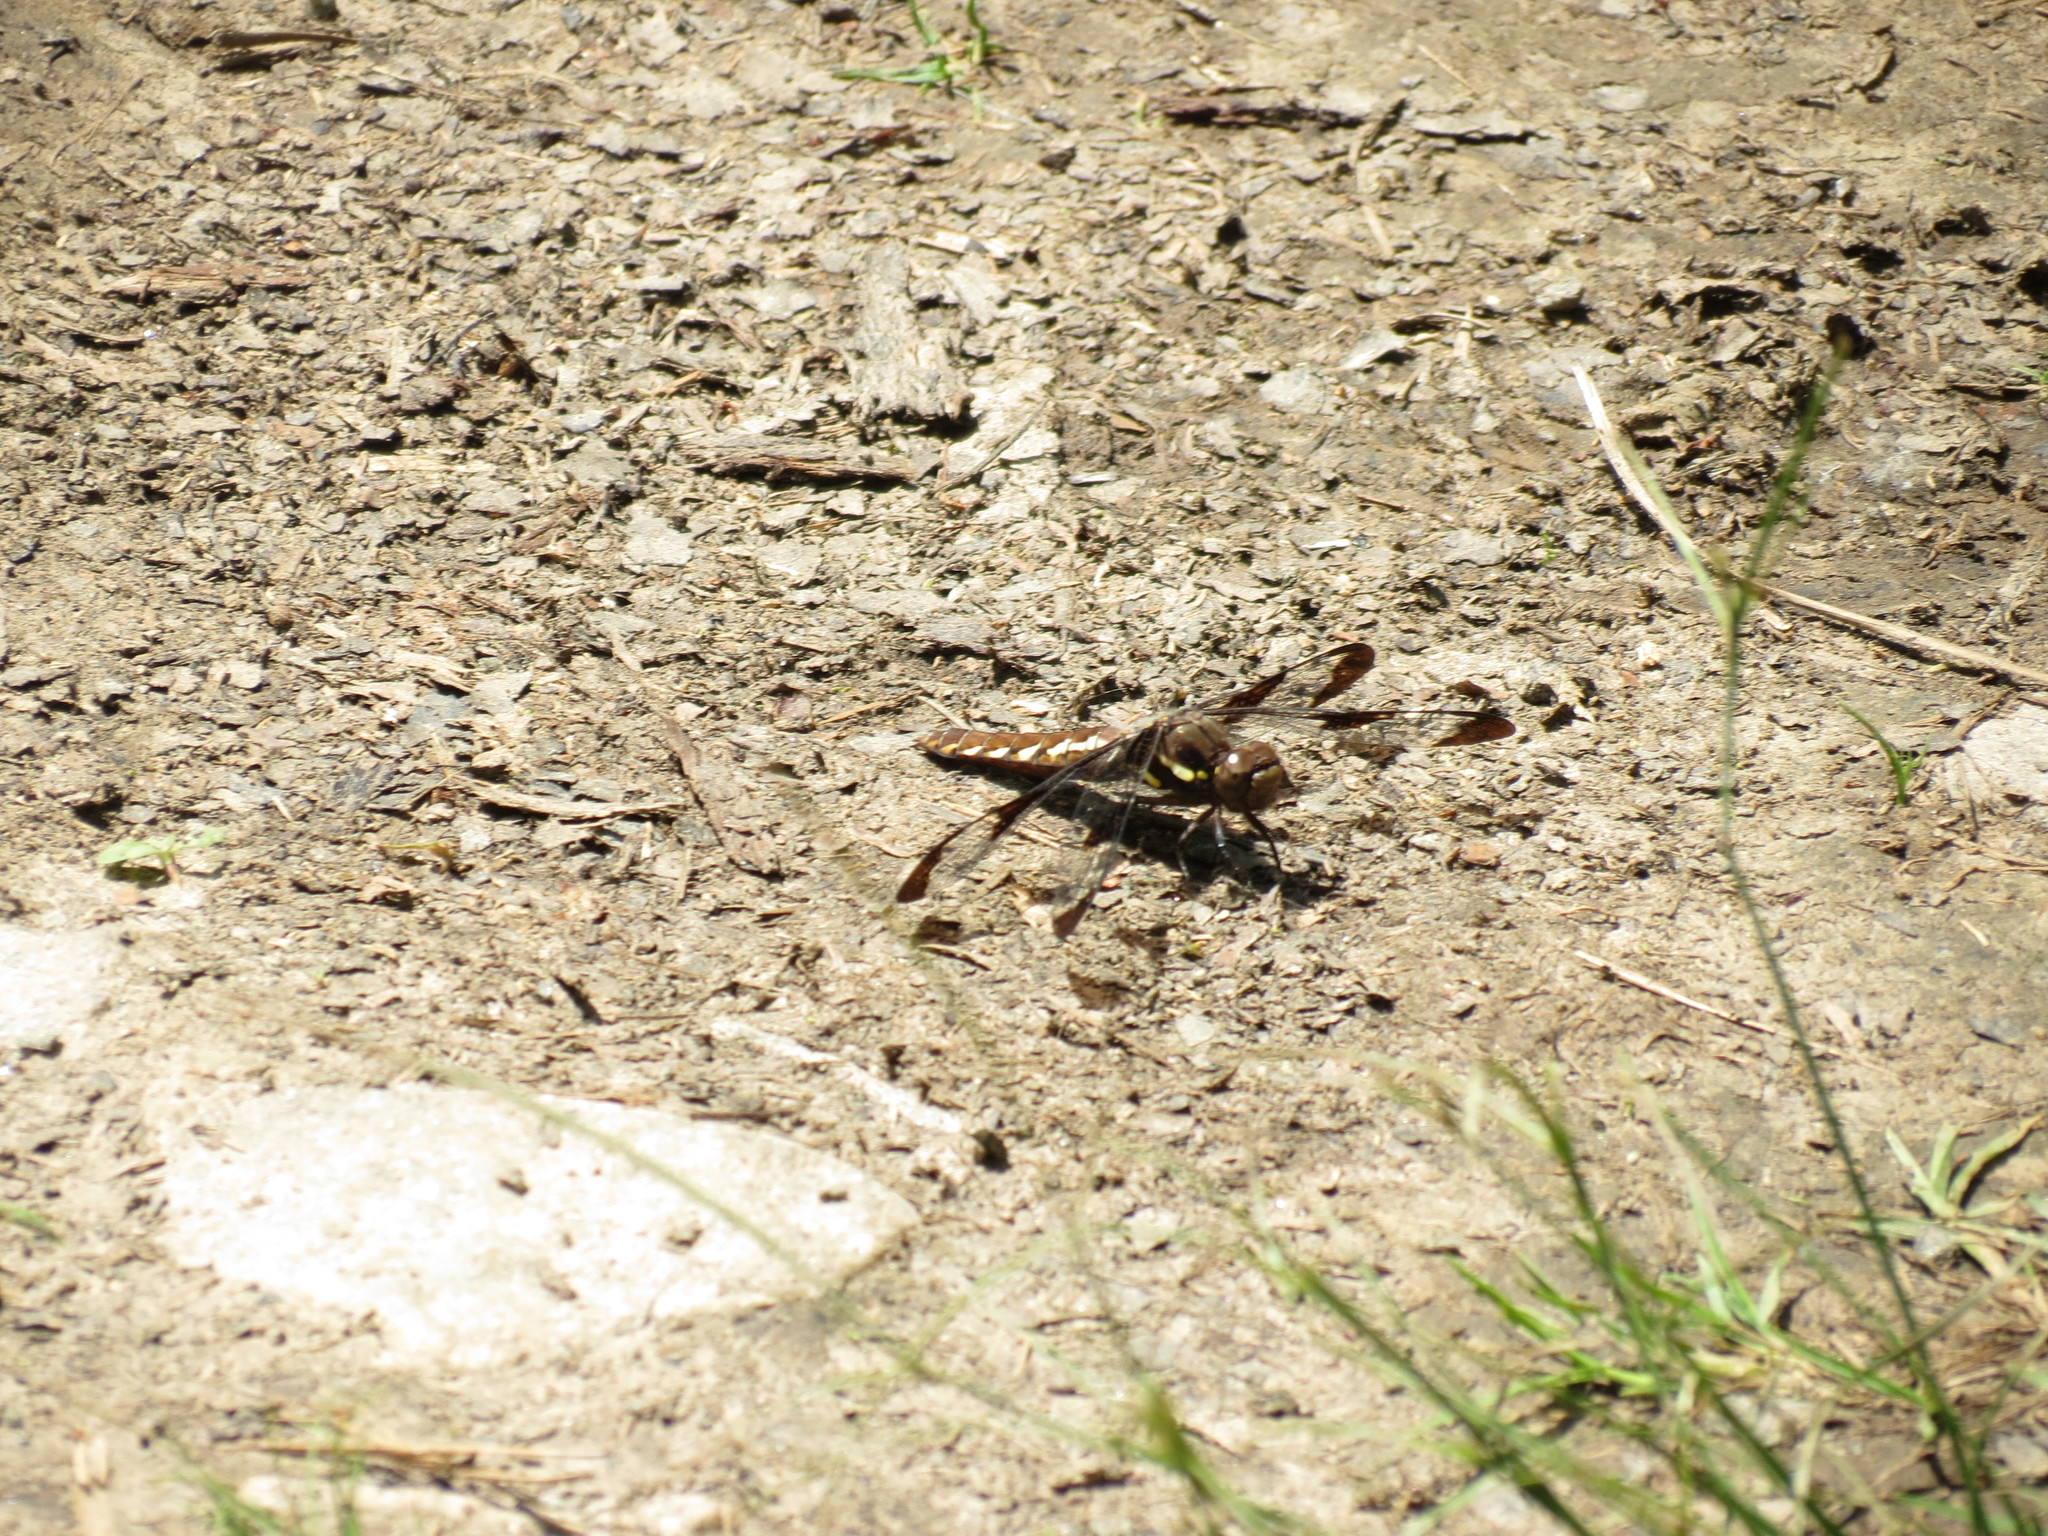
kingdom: Animalia
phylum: Arthropoda
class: Insecta
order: Odonata
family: Libellulidae
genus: Plathemis
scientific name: Plathemis lydia
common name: Common whitetail
